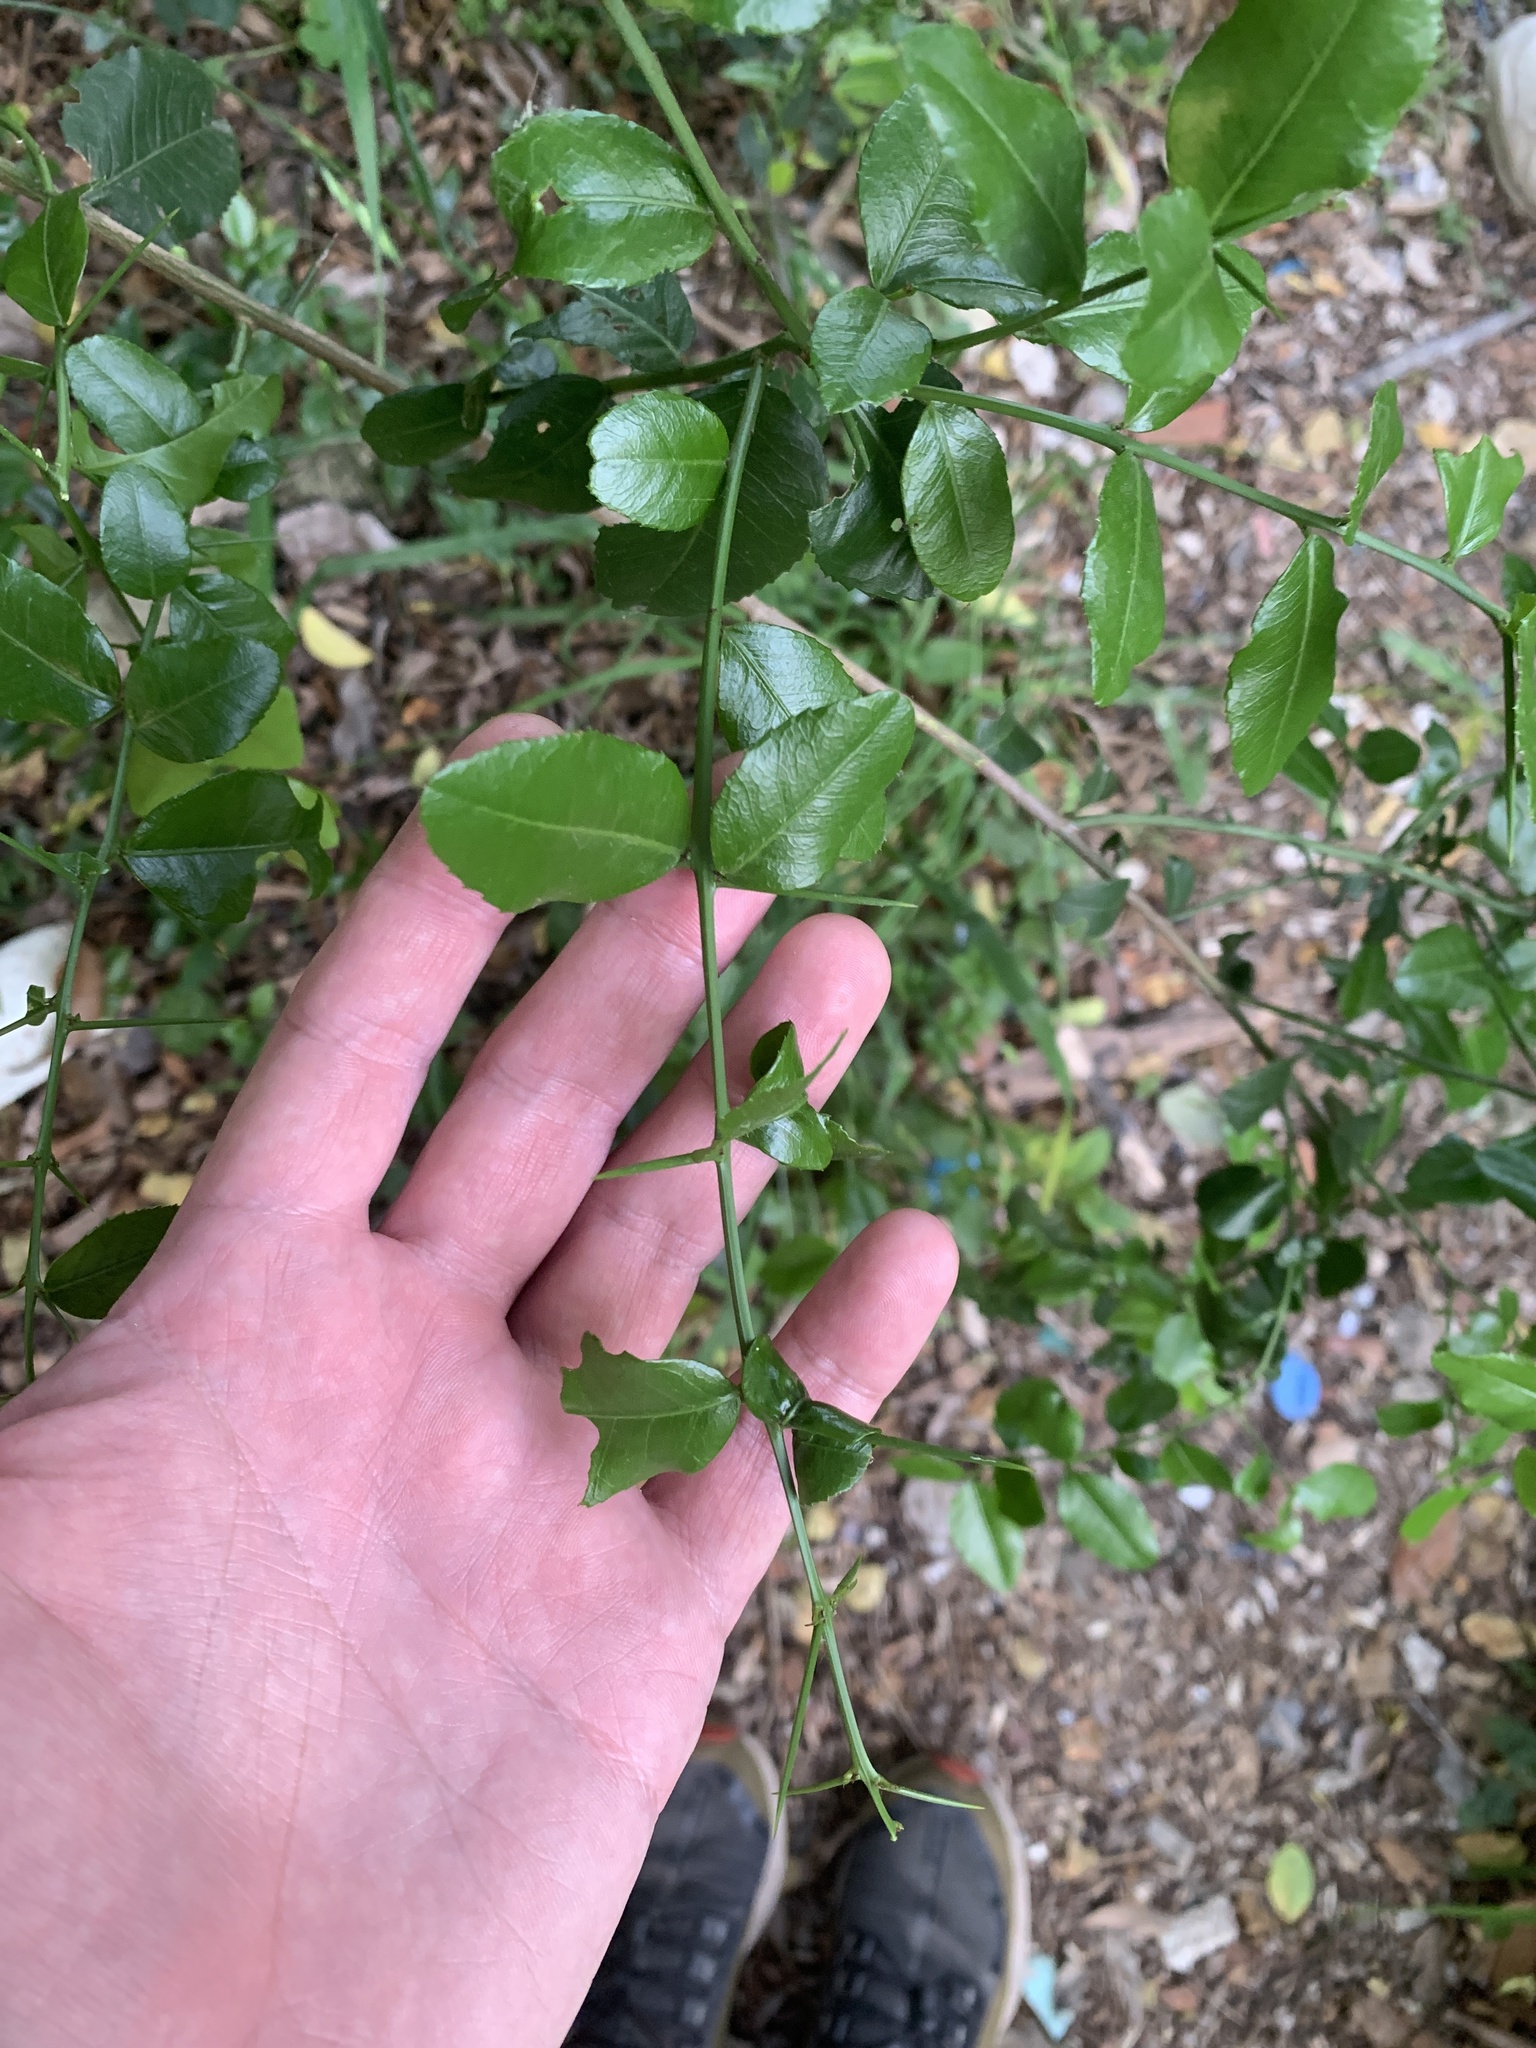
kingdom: Plantae
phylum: Tracheophyta
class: Magnoliopsida
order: Rosales
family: Rhamnaceae
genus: Scutia
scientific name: Scutia buxifolia
